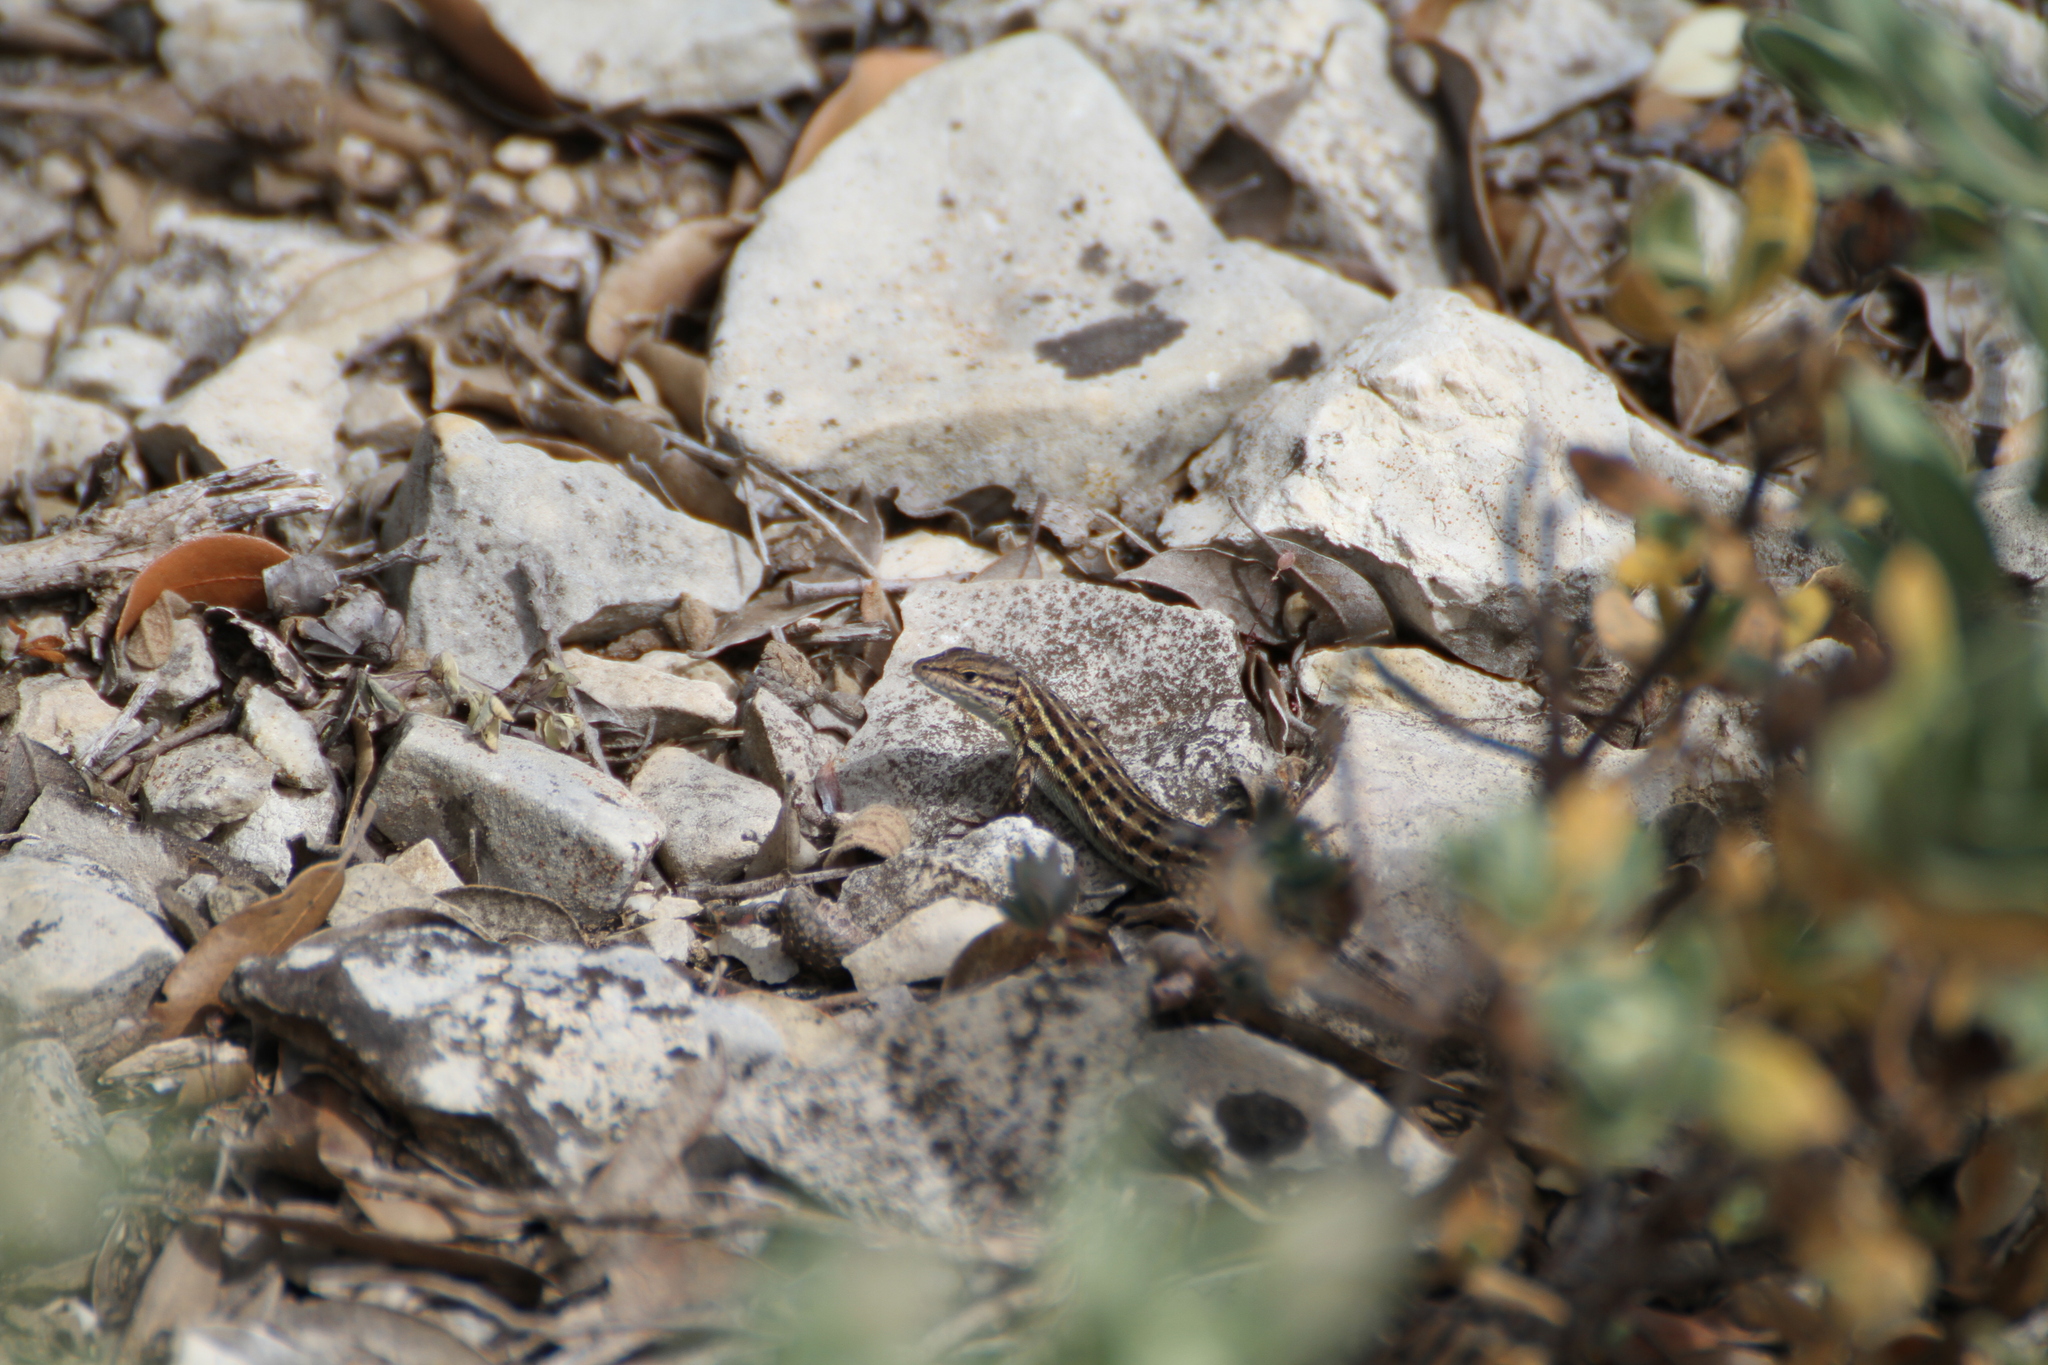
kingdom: Animalia
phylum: Chordata
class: Squamata
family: Lacertidae
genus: Psammodromus
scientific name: Psammodromus edwarsianus
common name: East iberian psammodromus
